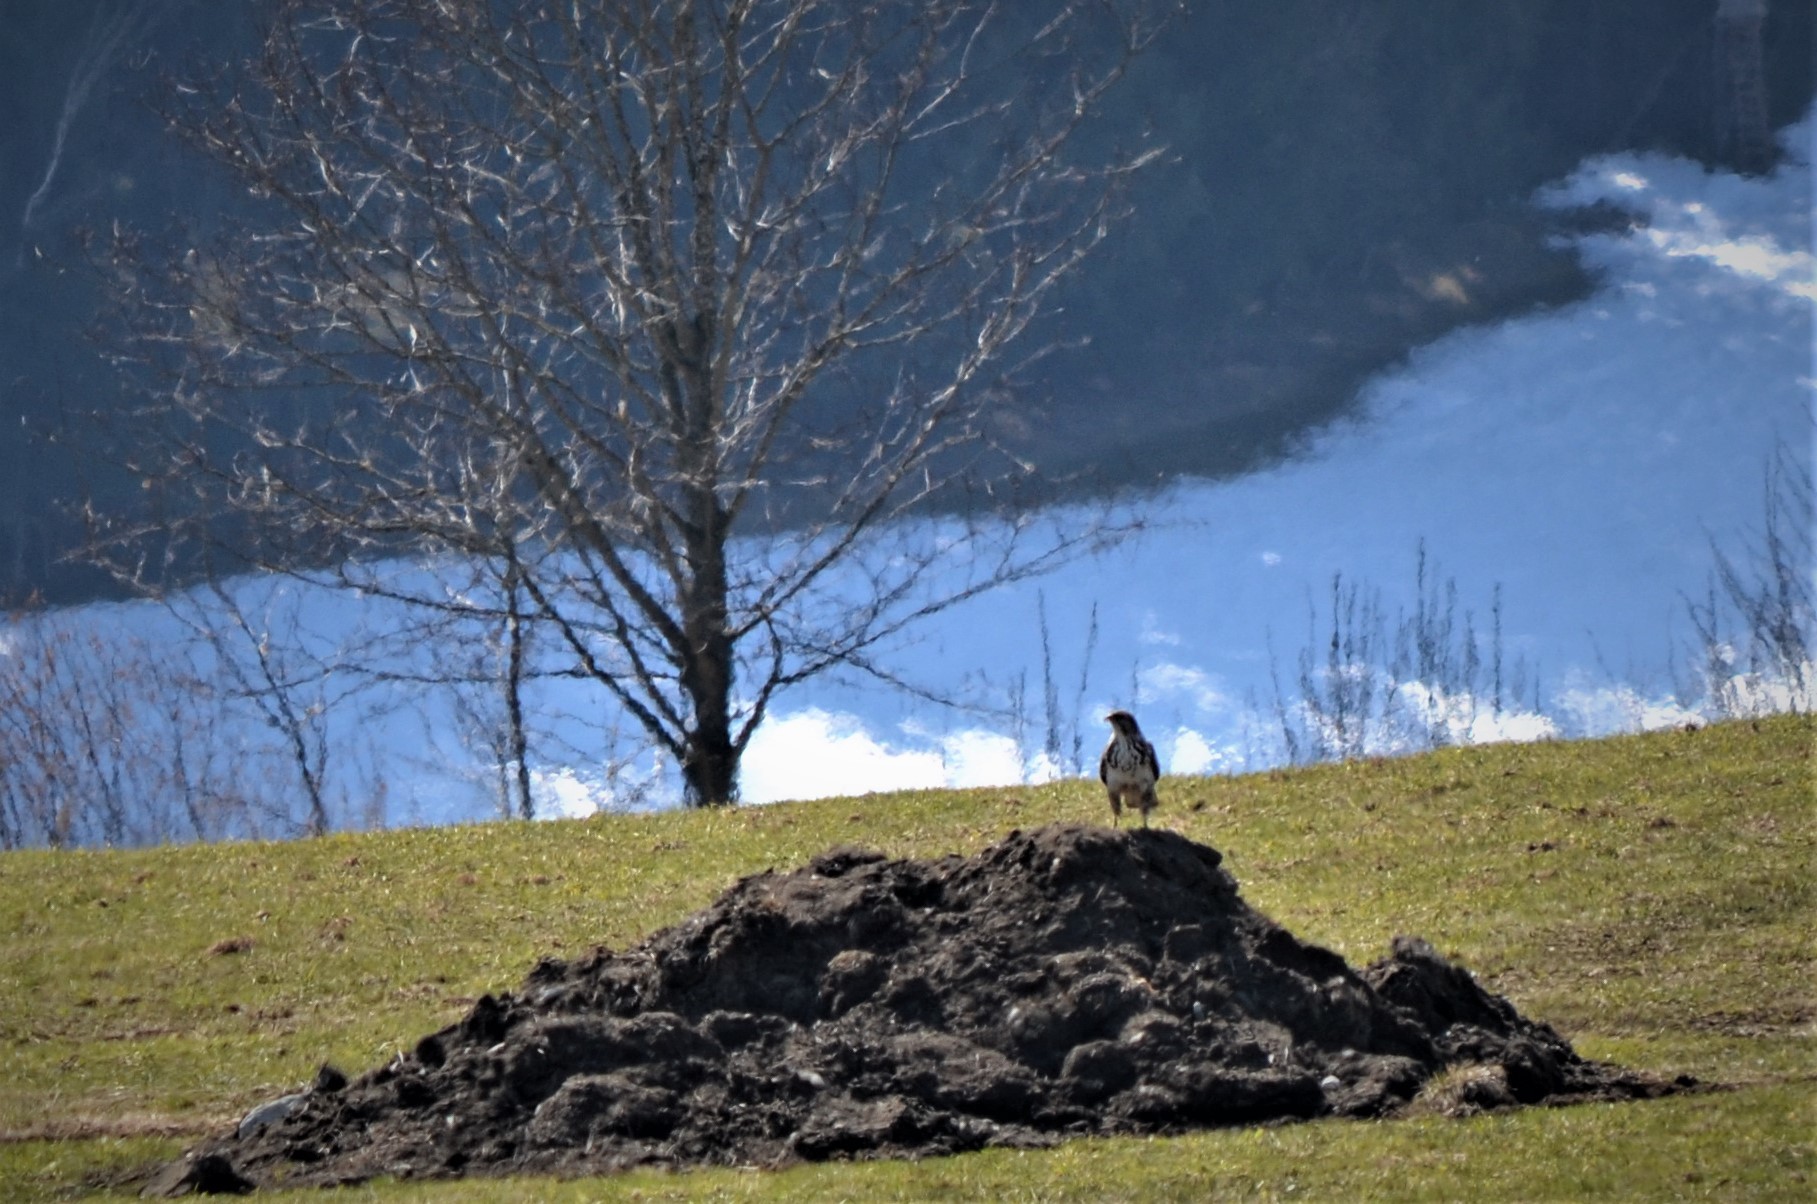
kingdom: Animalia
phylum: Chordata
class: Aves
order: Accipitriformes
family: Accipitridae
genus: Buteo
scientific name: Buteo buteo
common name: Common buzzard
